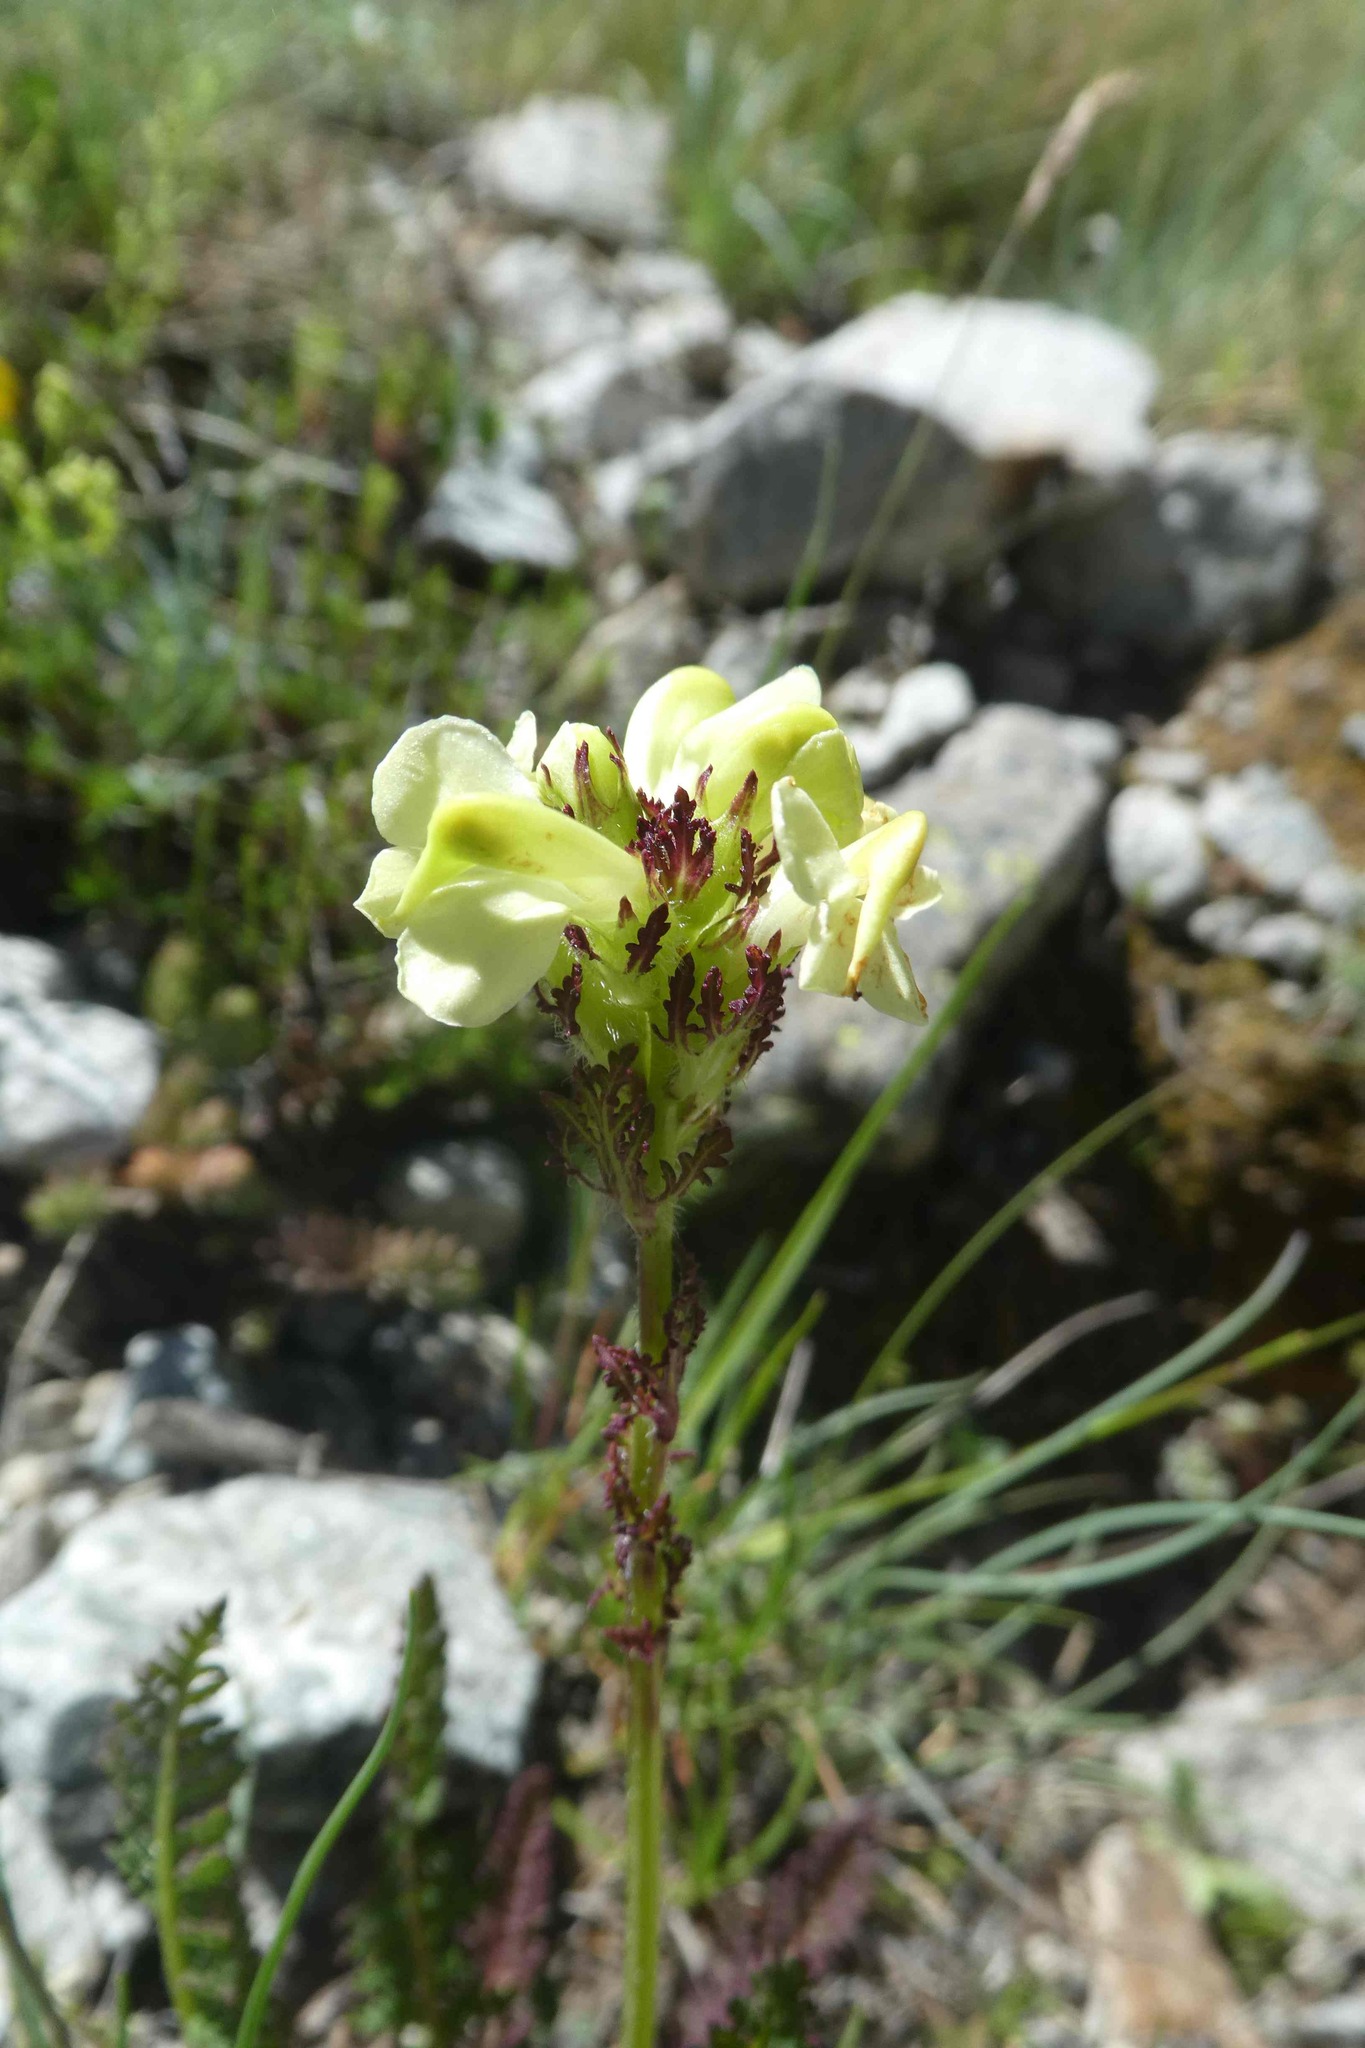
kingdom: Plantae
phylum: Tracheophyta
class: Magnoliopsida
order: Lamiales
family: Orobanchaceae
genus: Pedicularis
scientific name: Pedicularis tuberosa
